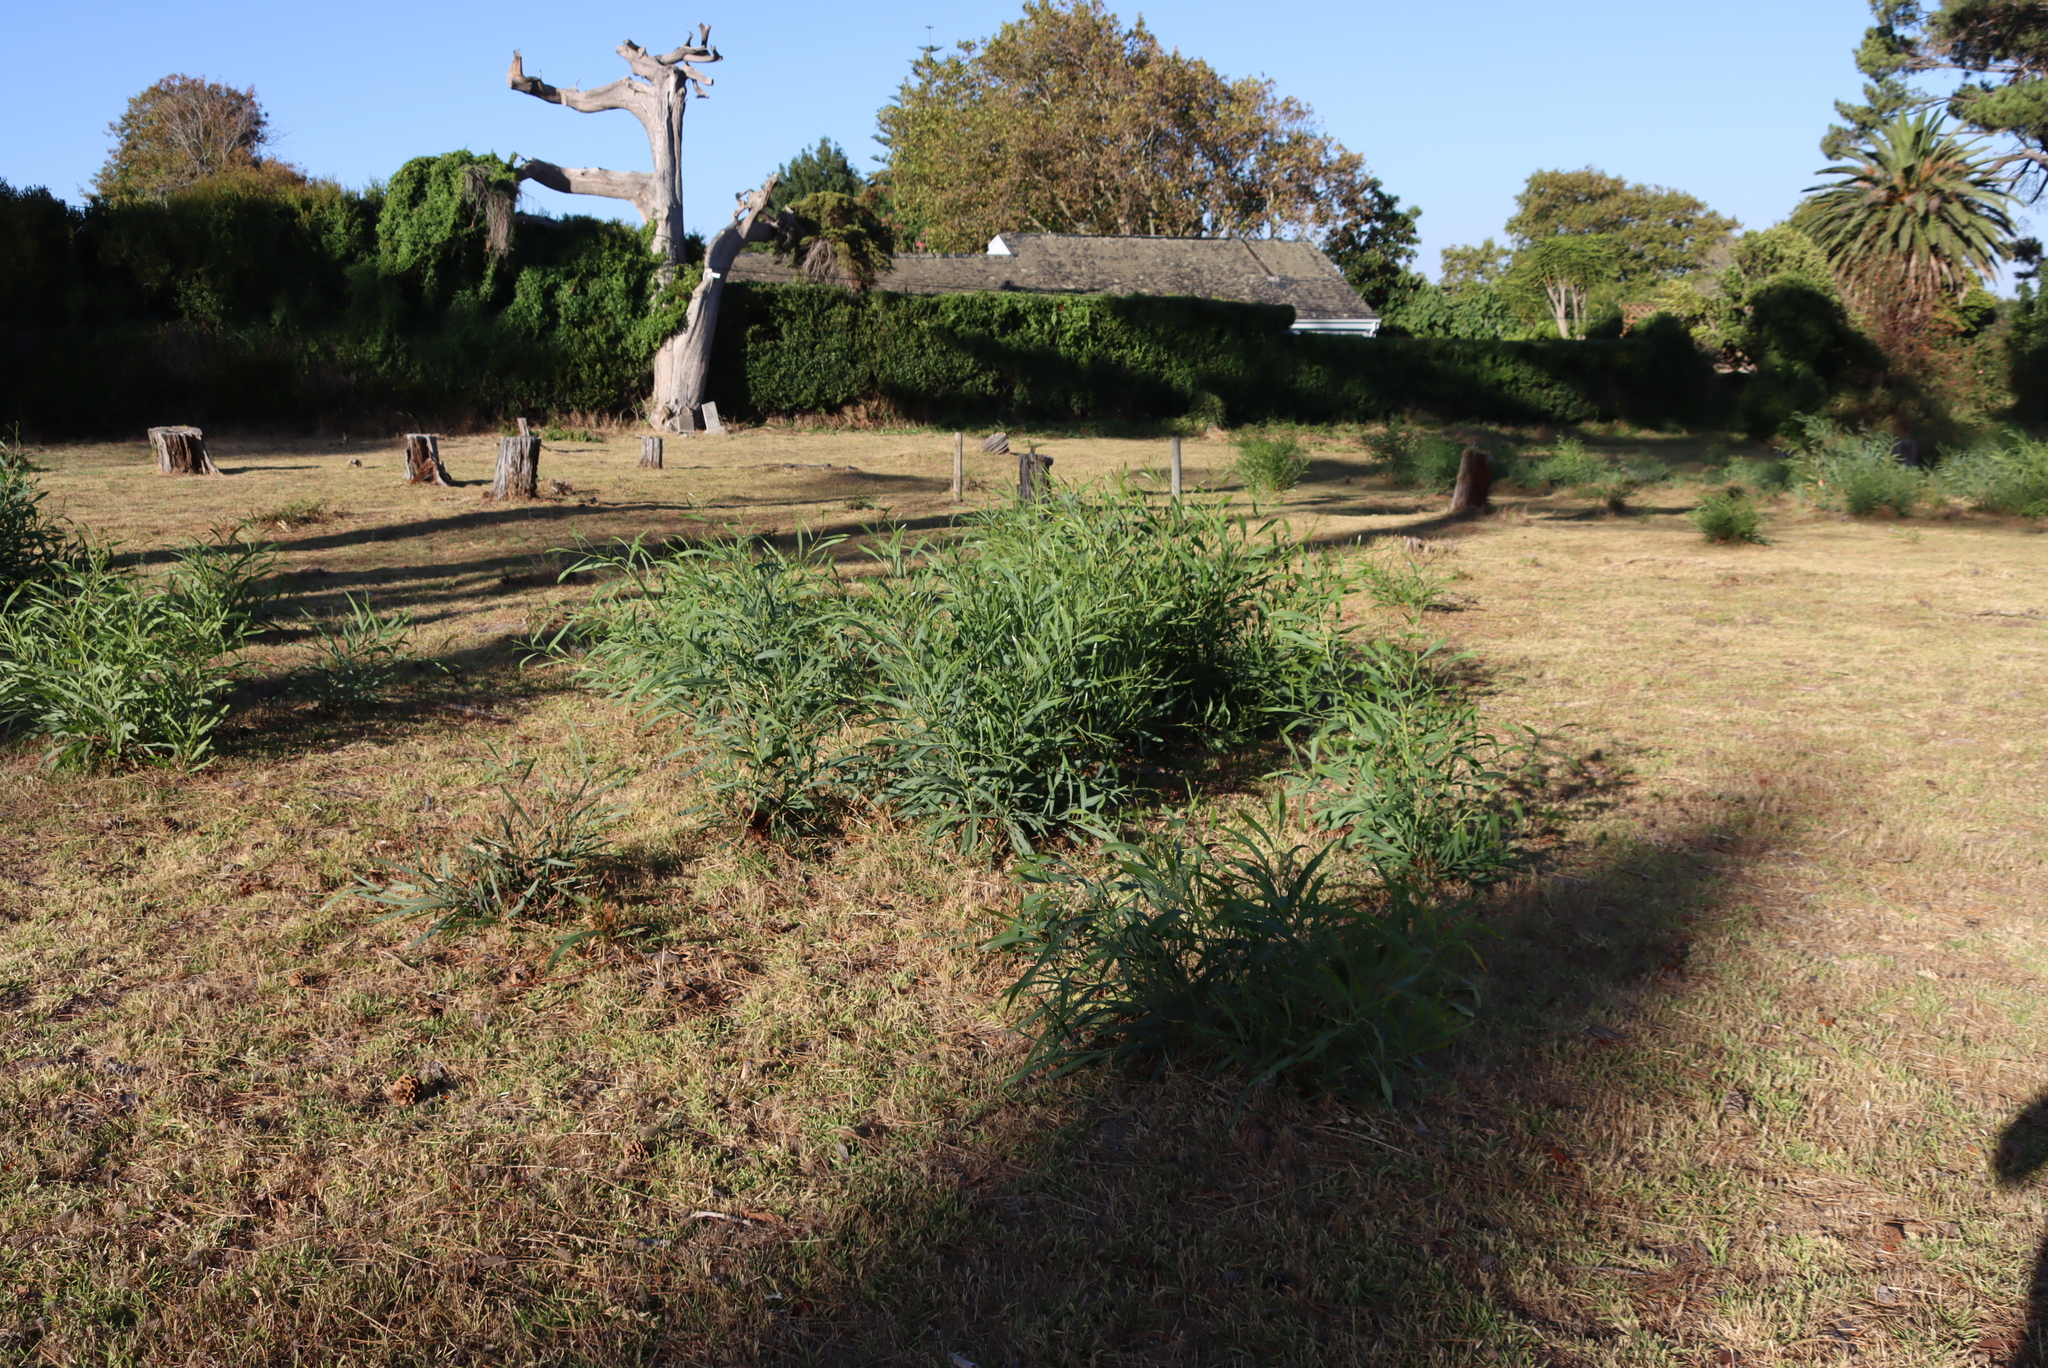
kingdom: Plantae
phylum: Tracheophyta
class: Magnoliopsida
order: Fabales
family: Fabaceae
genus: Acacia
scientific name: Acacia saligna
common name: Orange wattle
